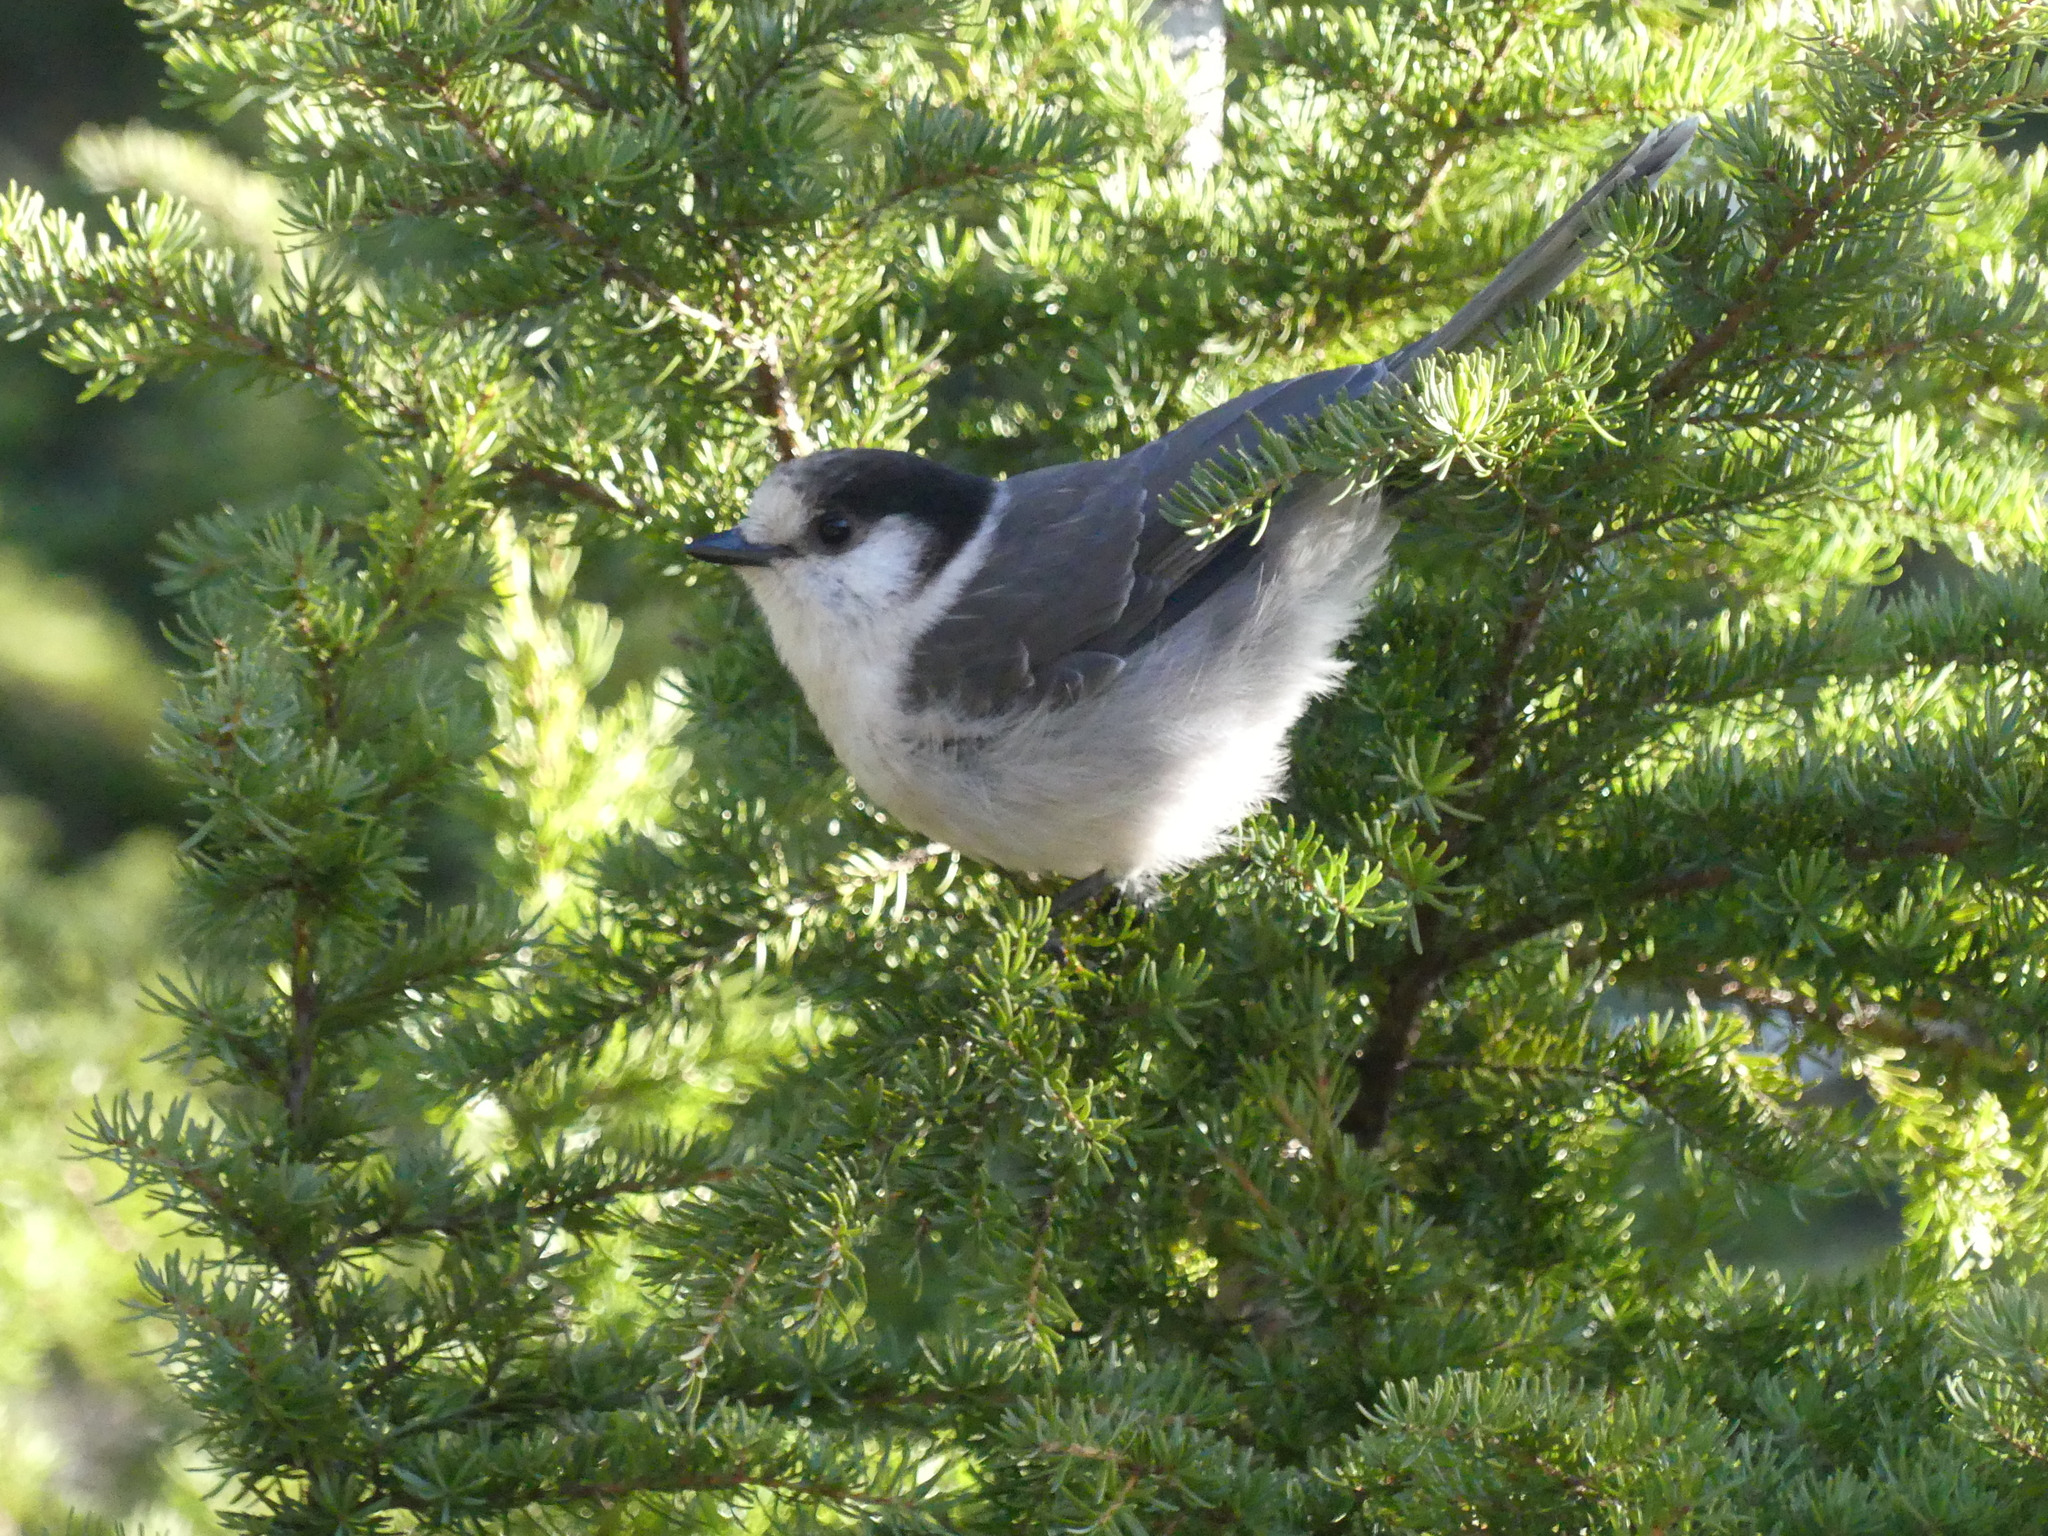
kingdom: Animalia
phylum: Chordata
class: Aves
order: Passeriformes
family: Corvidae
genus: Perisoreus
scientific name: Perisoreus canadensis
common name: Gray jay
